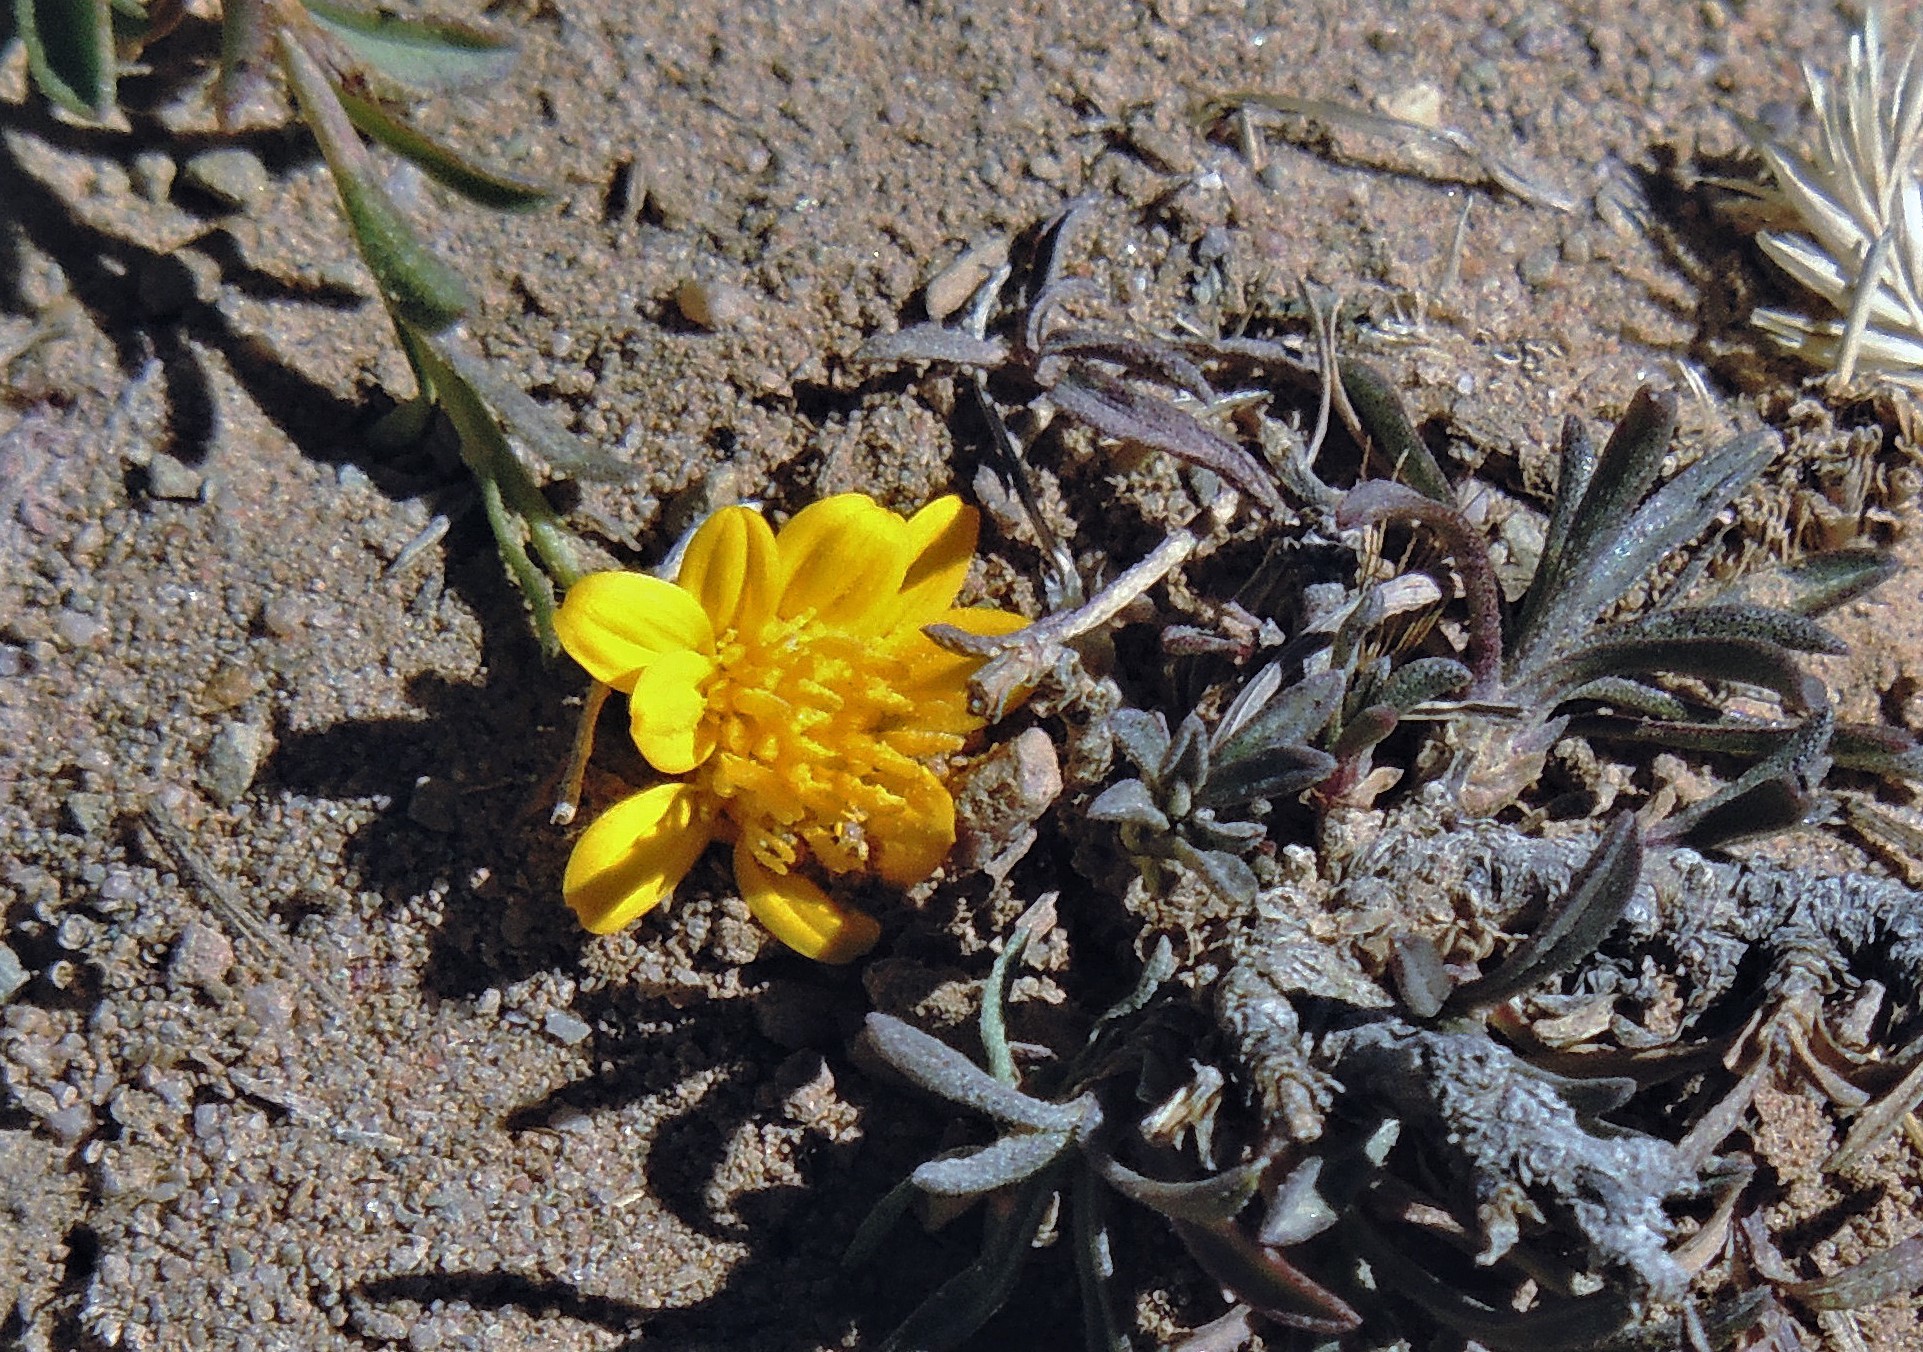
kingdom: Plantae
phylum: Tracheophyta
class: Magnoliopsida
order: Asterales
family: Asteraceae
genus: Gutierrezia
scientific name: Gutierrezia mandonii
